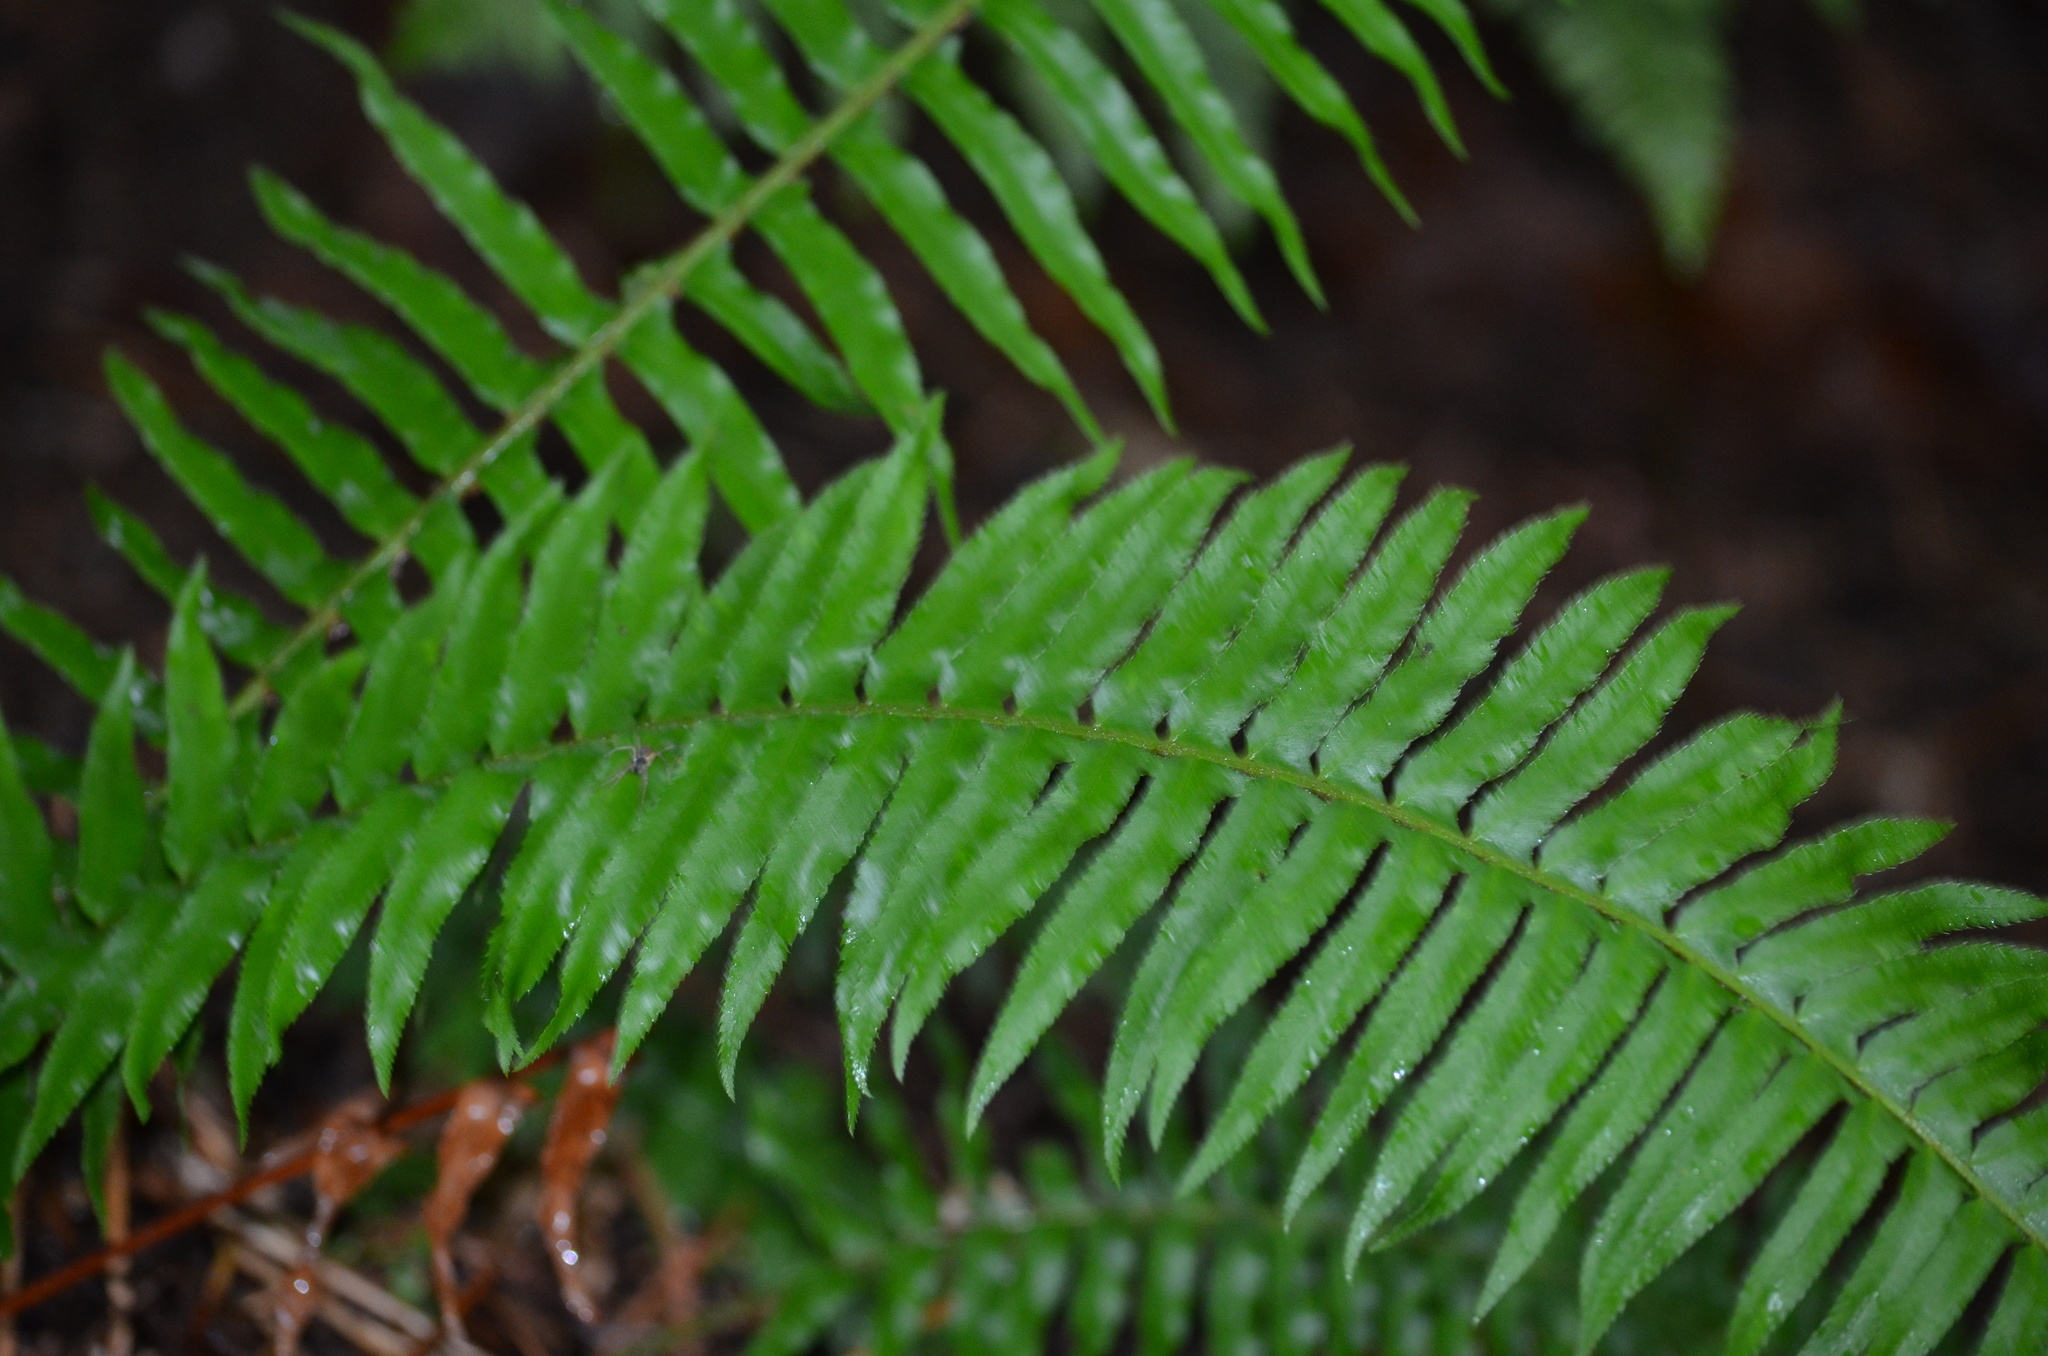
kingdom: Plantae
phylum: Tracheophyta
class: Polypodiopsida
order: Polypodiales
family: Dryopteridaceae
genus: Polystichum
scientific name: Polystichum munitum
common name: Western sword-fern
